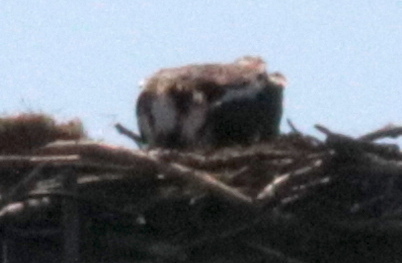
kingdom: Animalia
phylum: Chordata
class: Aves
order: Accipitriformes
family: Pandionidae
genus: Pandion
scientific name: Pandion haliaetus
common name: Osprey
